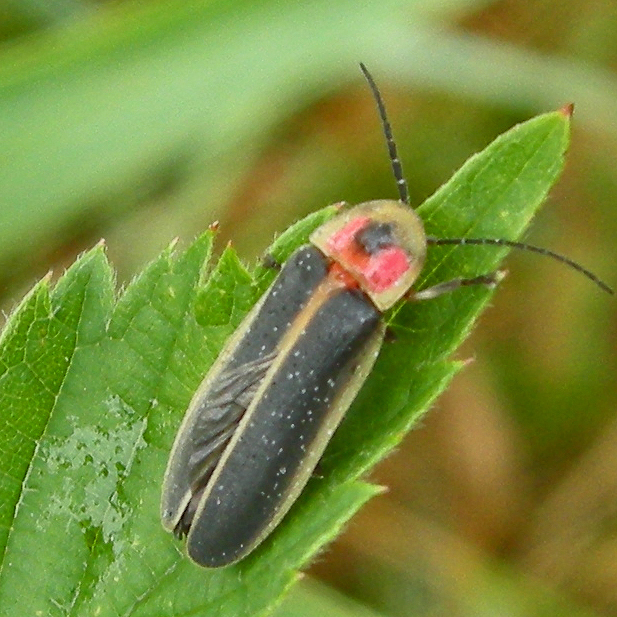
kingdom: Animalia
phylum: Arthropoda
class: Insecta
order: Coleoptera
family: Lampyridae
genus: Photinus
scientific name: Photinus pyralis
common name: Big dipper firefly
